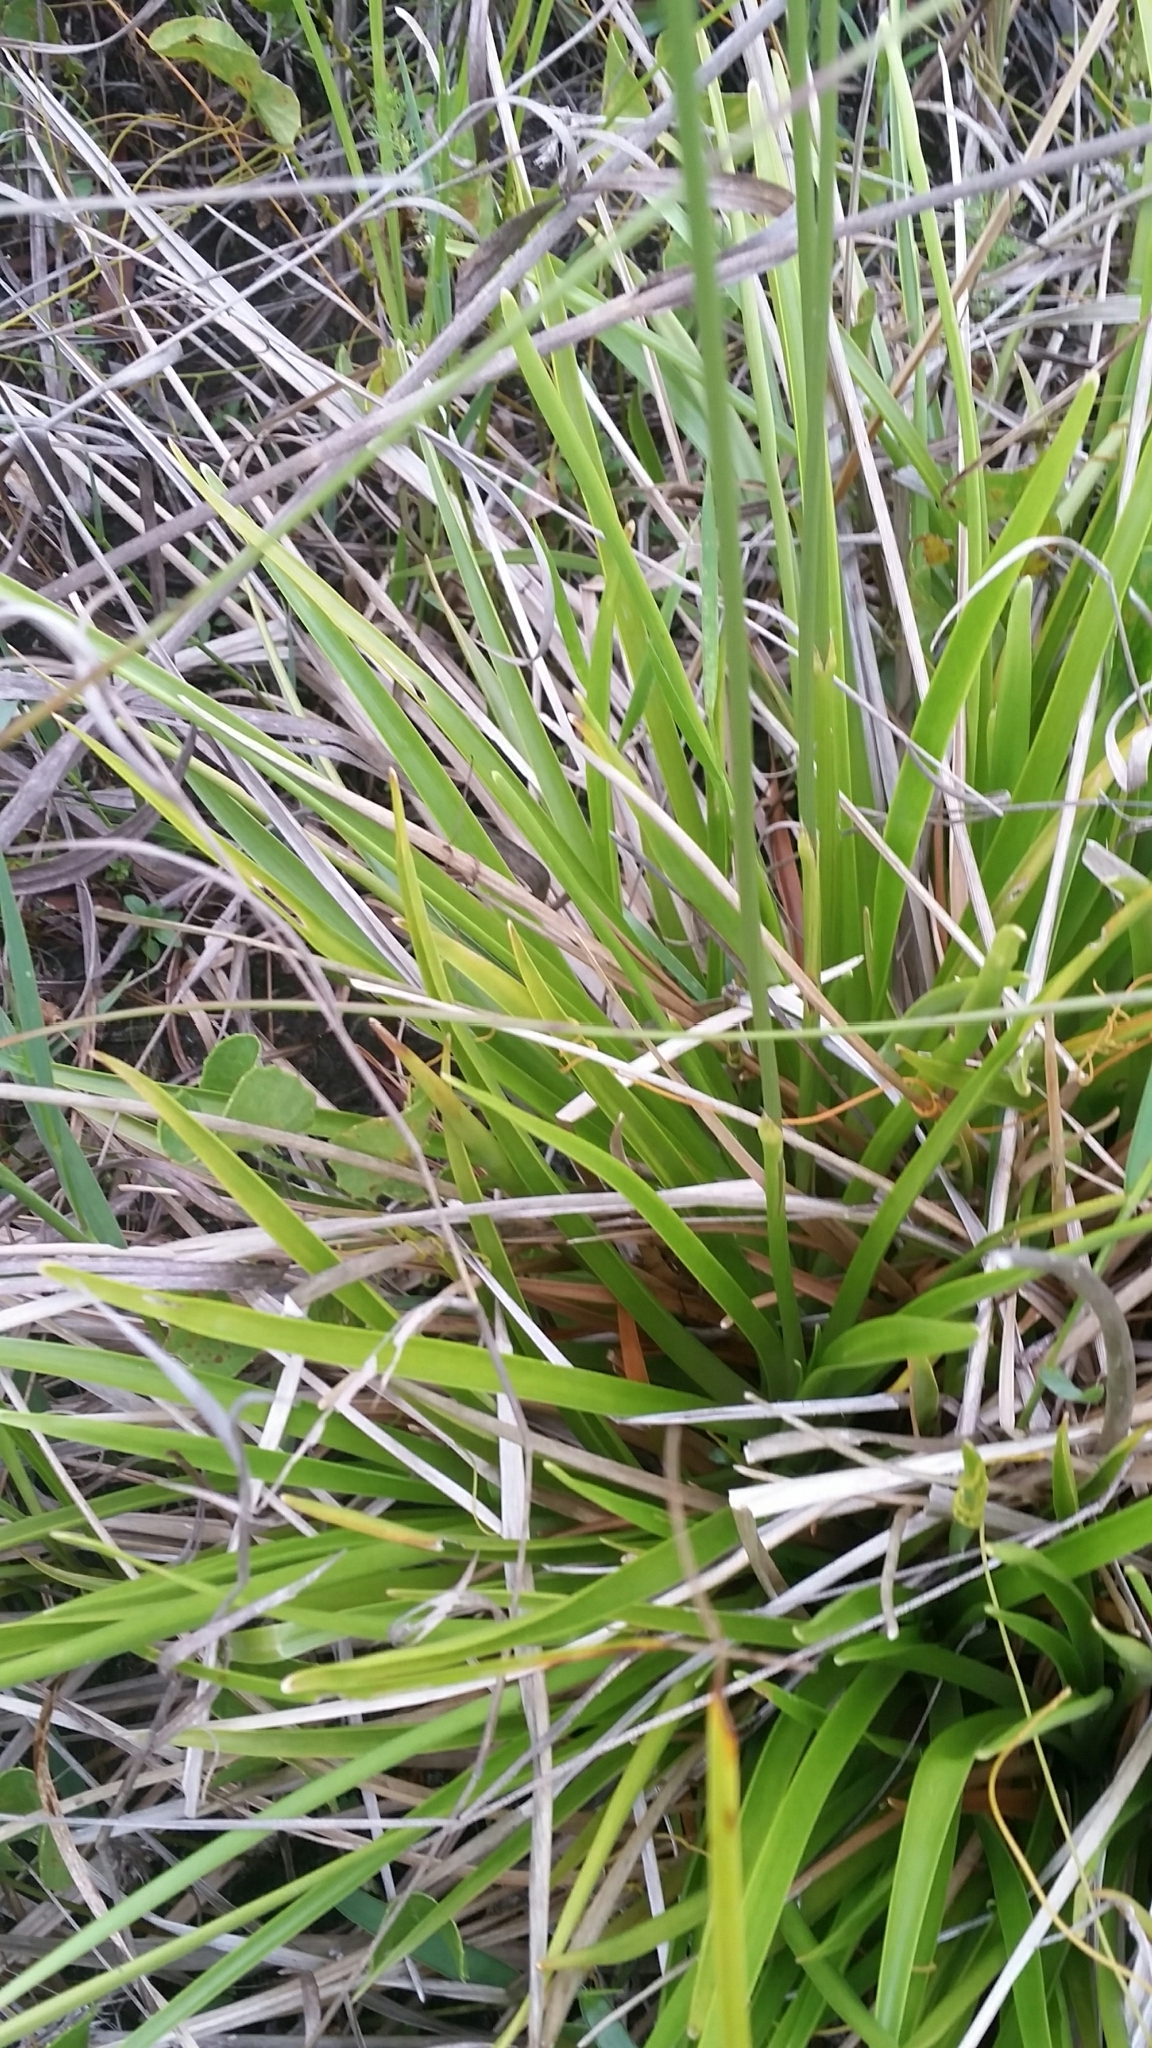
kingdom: Plantae
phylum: Tracheophyta
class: Liliopsida
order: Poales
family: Eriocaulaceae
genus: Eriocaulon
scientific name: Eriocaulon decangulare
